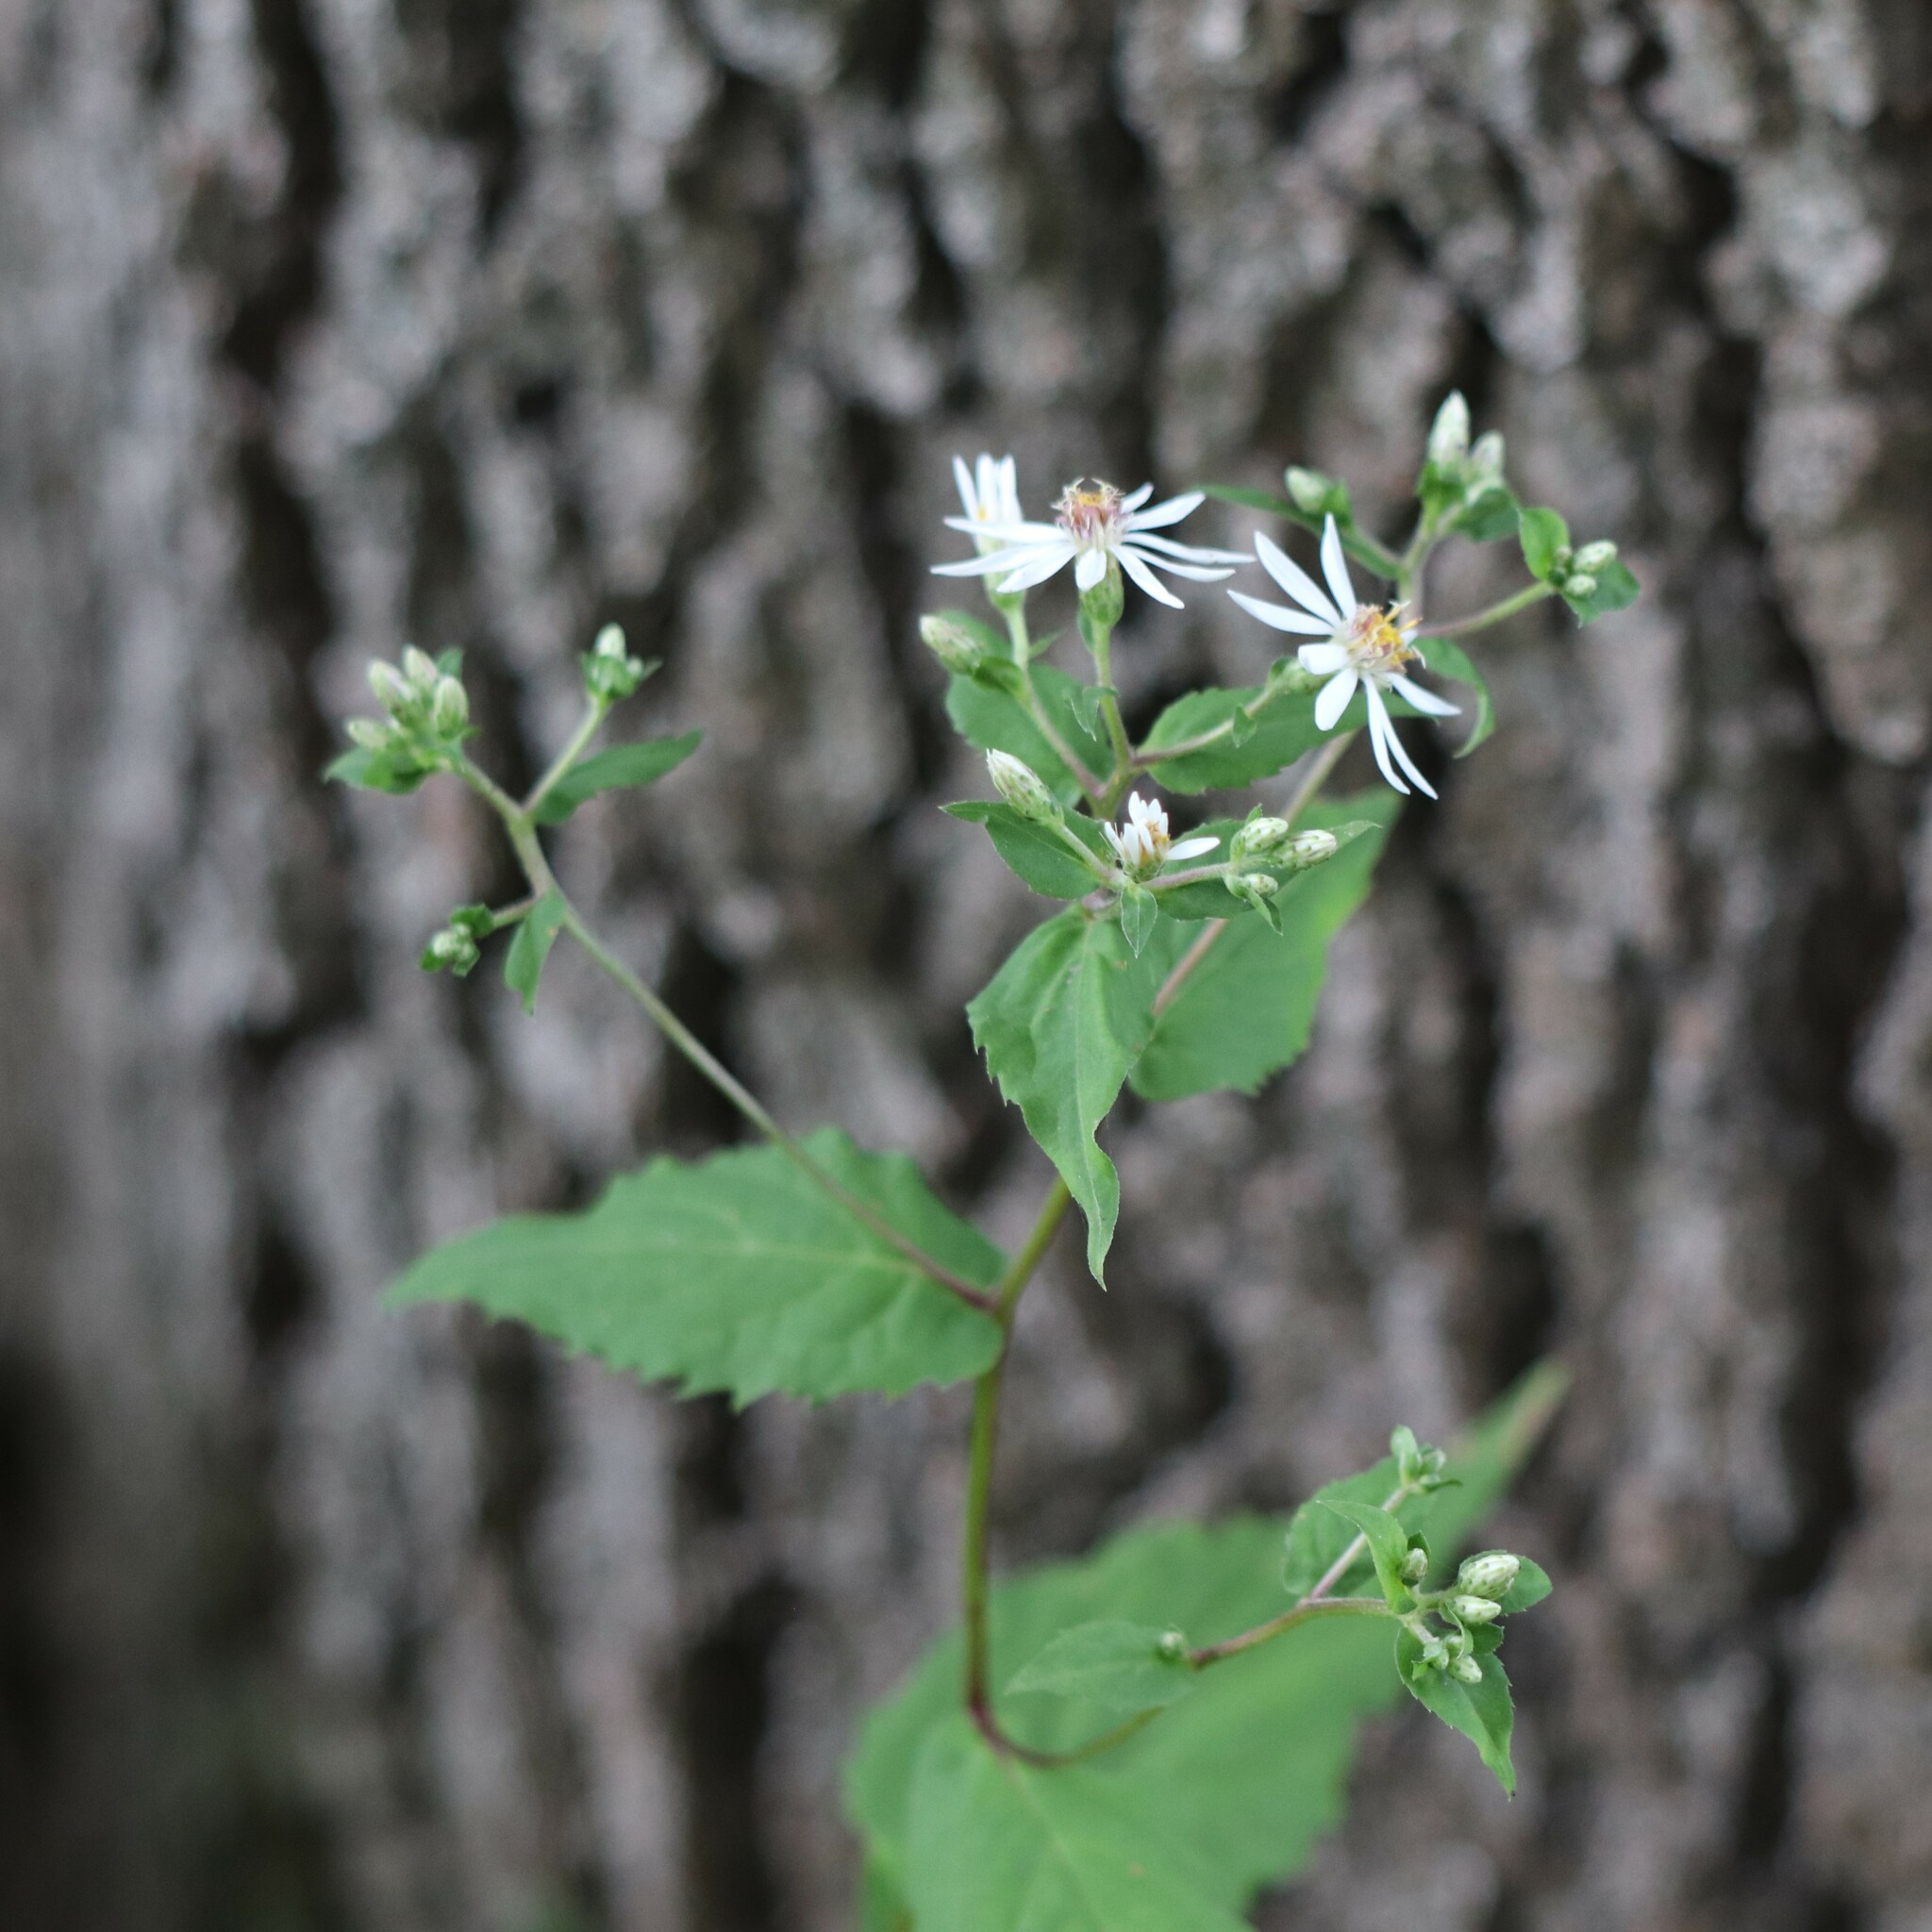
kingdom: Plantae
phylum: Tracheophyta
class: Magnoliopsida
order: Asterales
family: Asteraceae
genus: Eurybia
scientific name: Eurybia divaricata
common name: White wood aster
